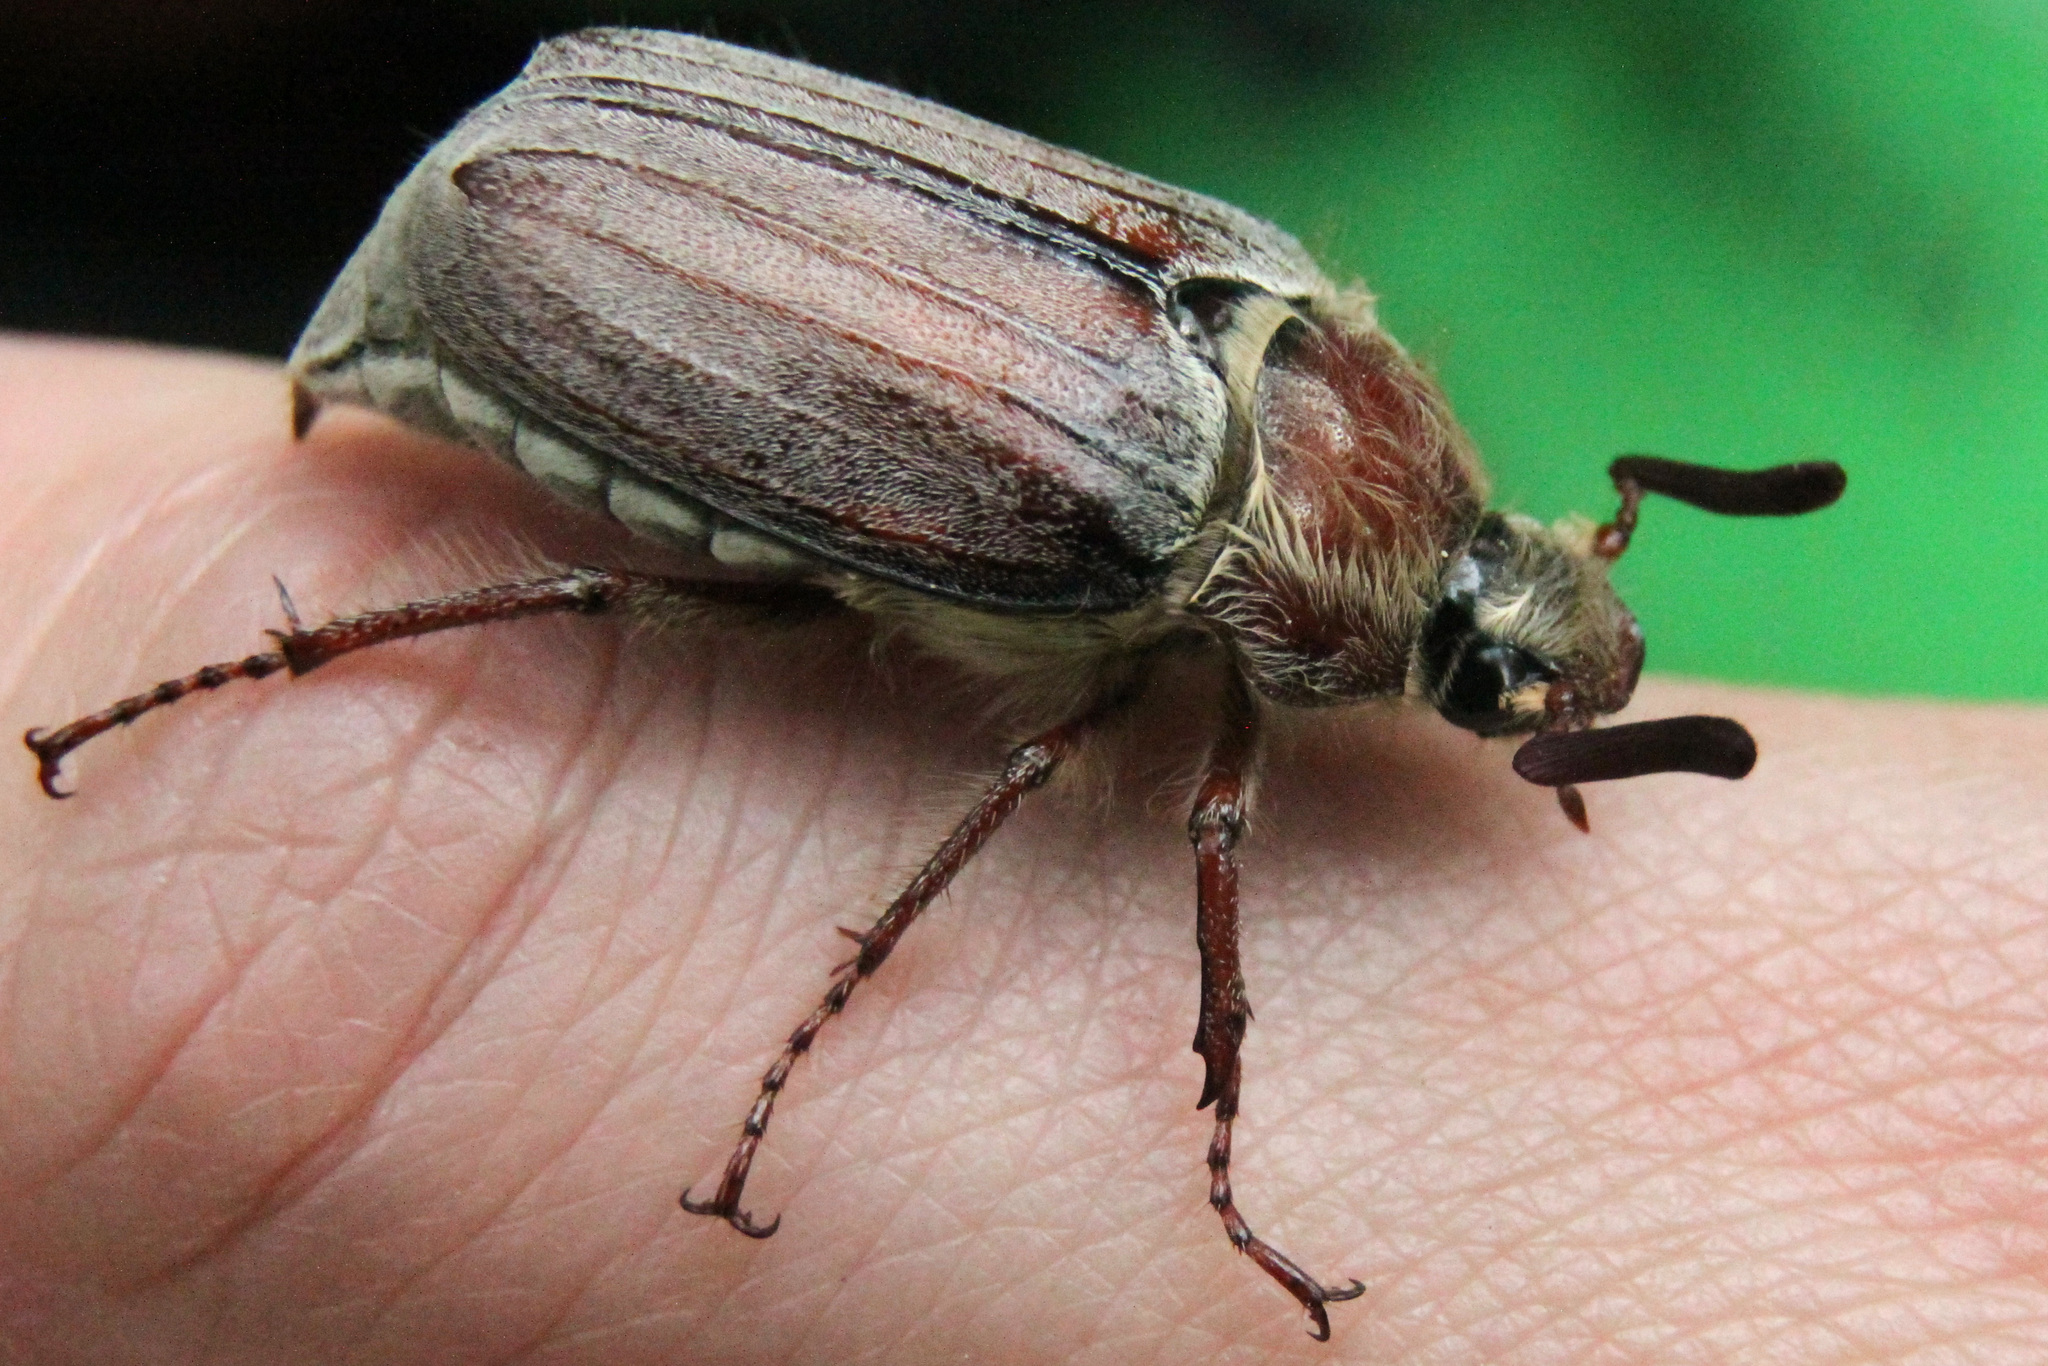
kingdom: Animalia
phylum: Arthropoda
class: Insecta
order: Coleoptera
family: Scarabaeidae
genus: Melolontha
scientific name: Melolontha hippocastani
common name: Chestnut cockchafer
